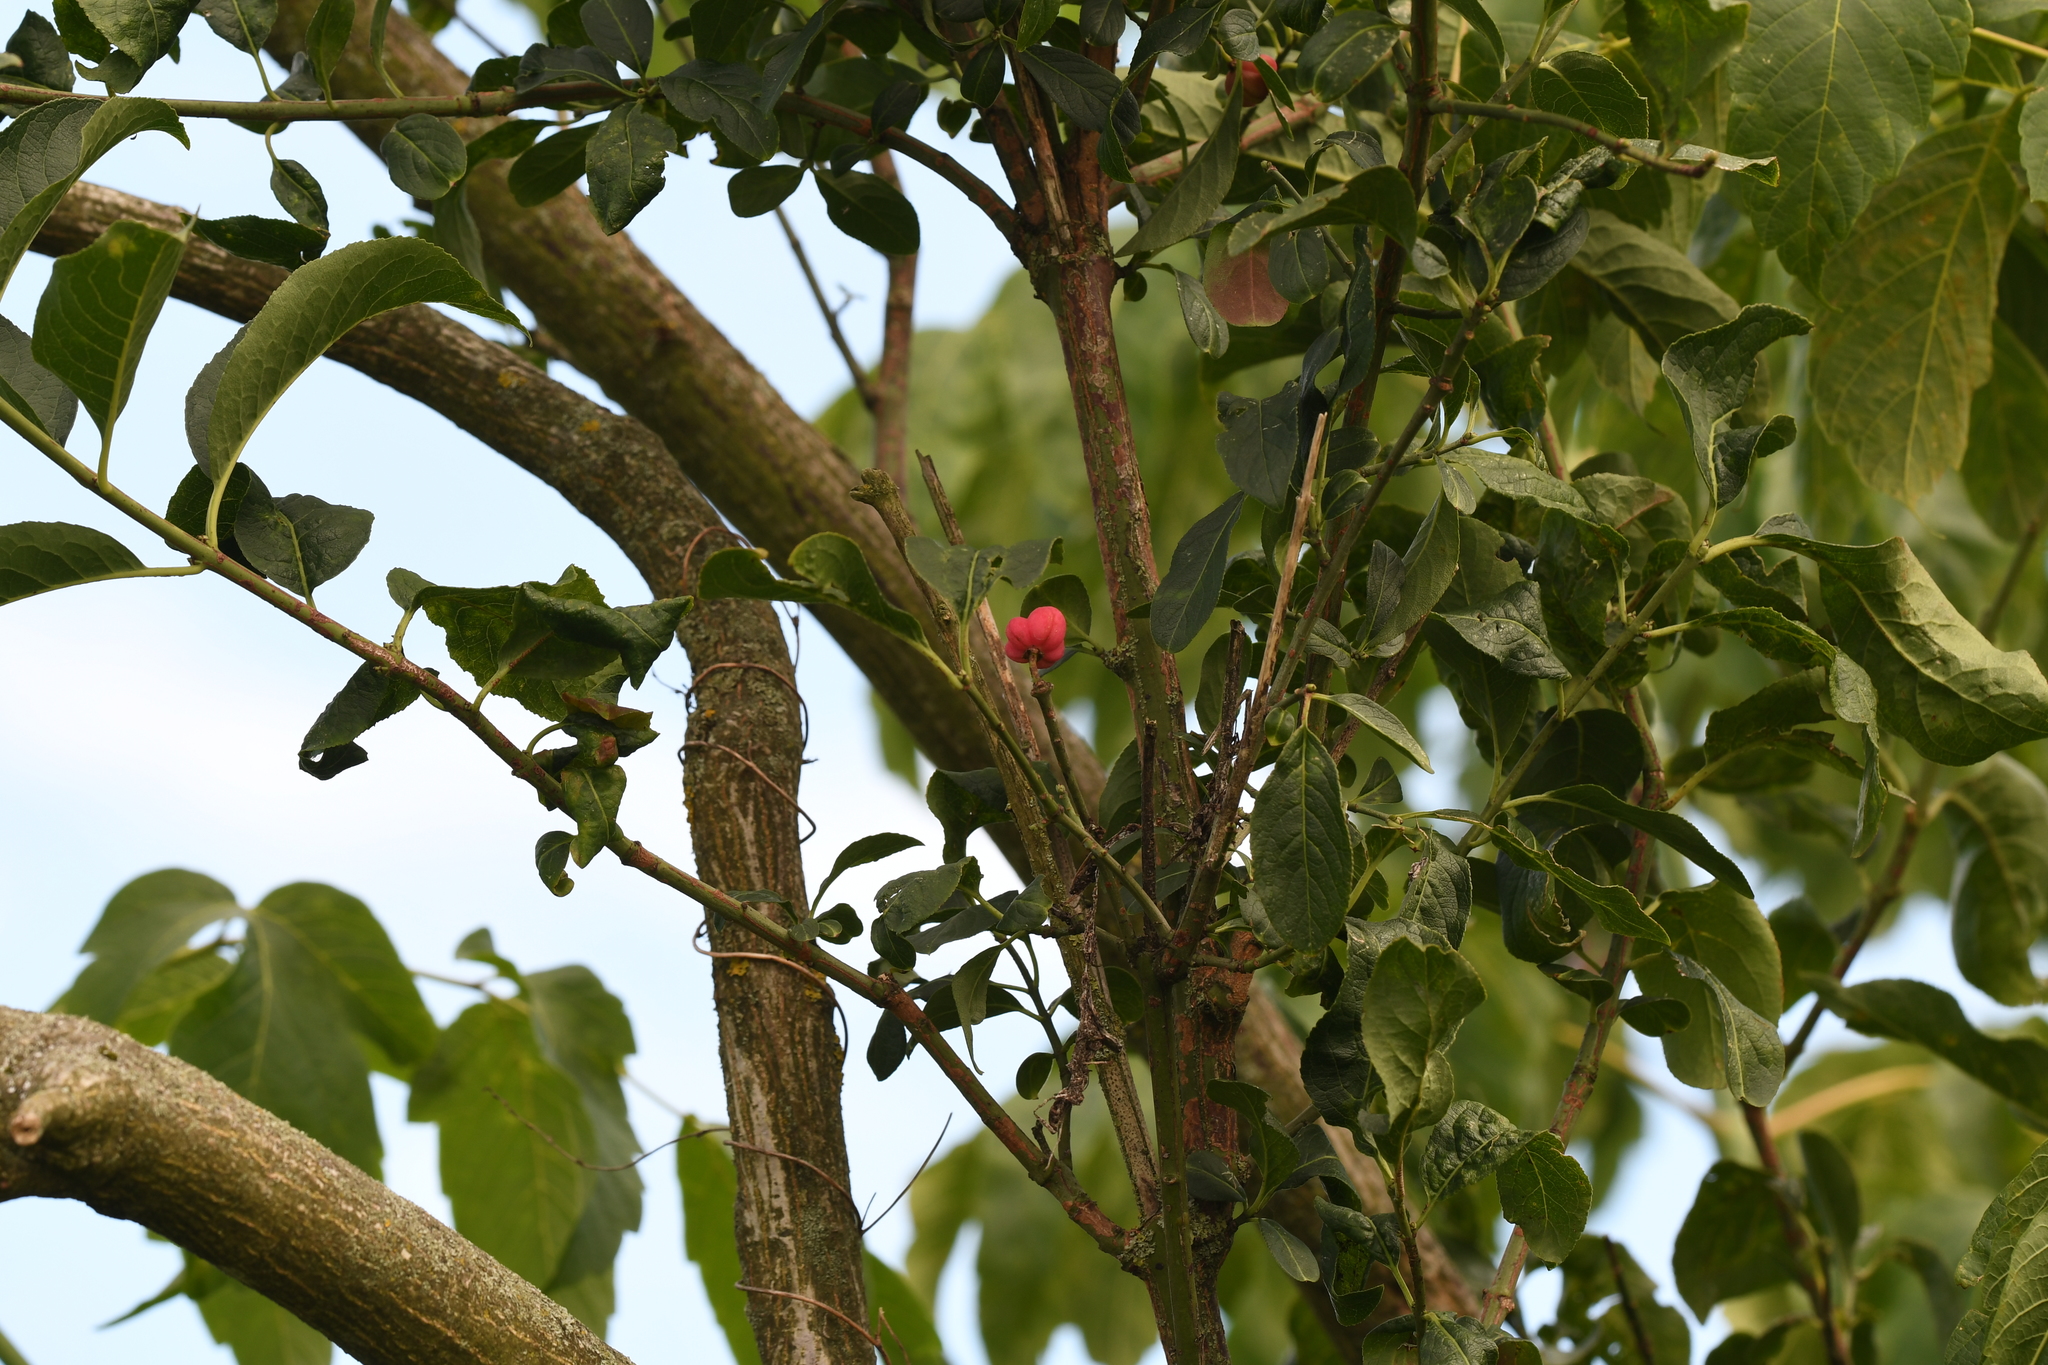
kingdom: Plantae
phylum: Tracheophyta
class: Magnoliopsida
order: Celastrales
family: Celastraceae
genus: Euonymus
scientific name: Euonymus europaeus
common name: Spindle
